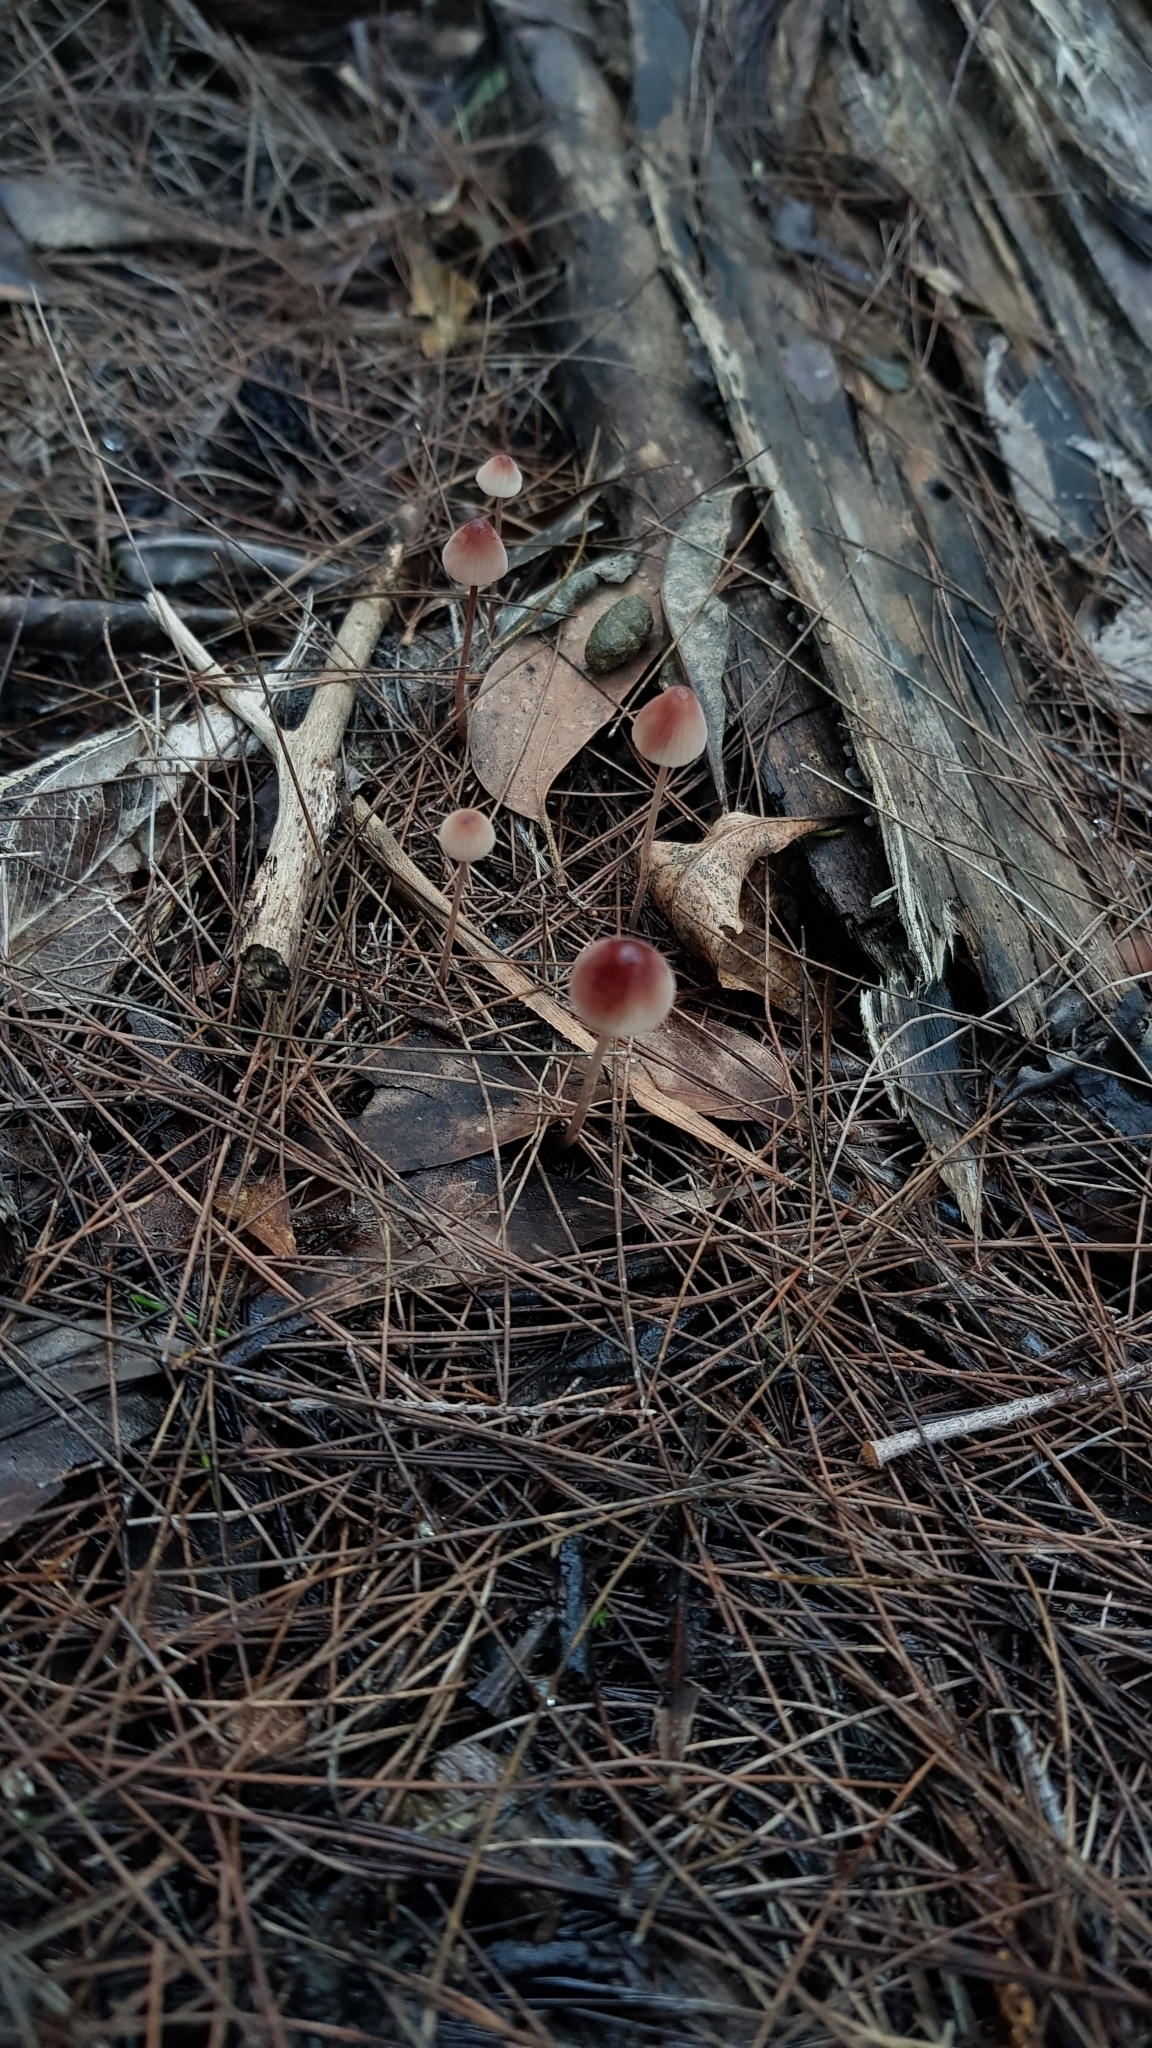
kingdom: Fungi
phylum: Basidiomycota
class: Agaricomycetes
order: Agaricales
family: Mycenaceae
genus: Mycena
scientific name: Mycena kuurkacea
